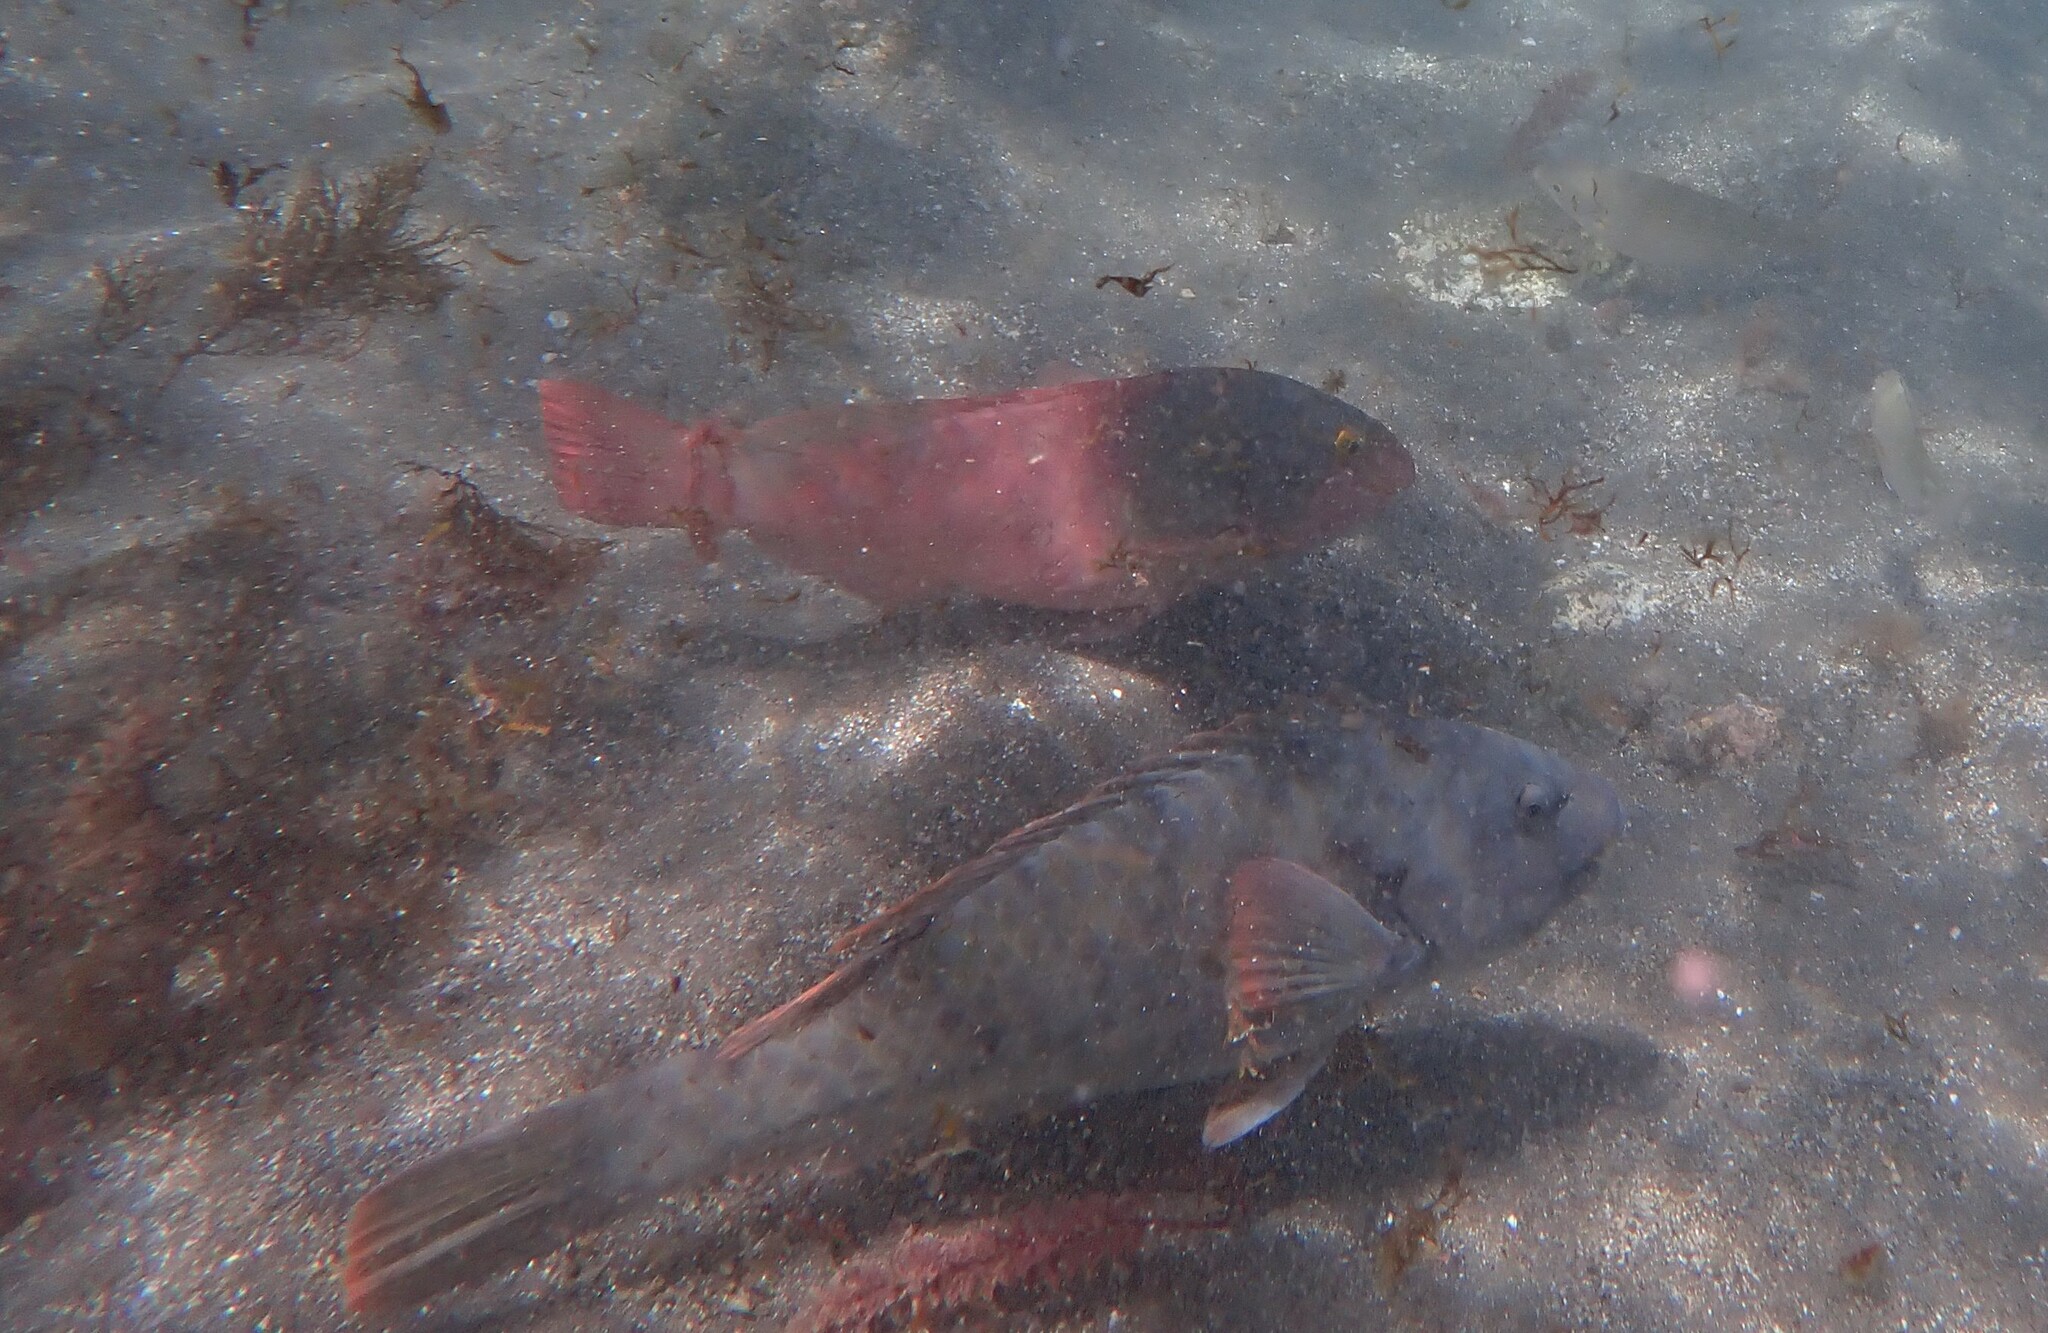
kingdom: Animalia
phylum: Chordata
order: Perciformes
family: Scaridae
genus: Sparisoma
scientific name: Sparisoma cretense
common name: Parrotfish
